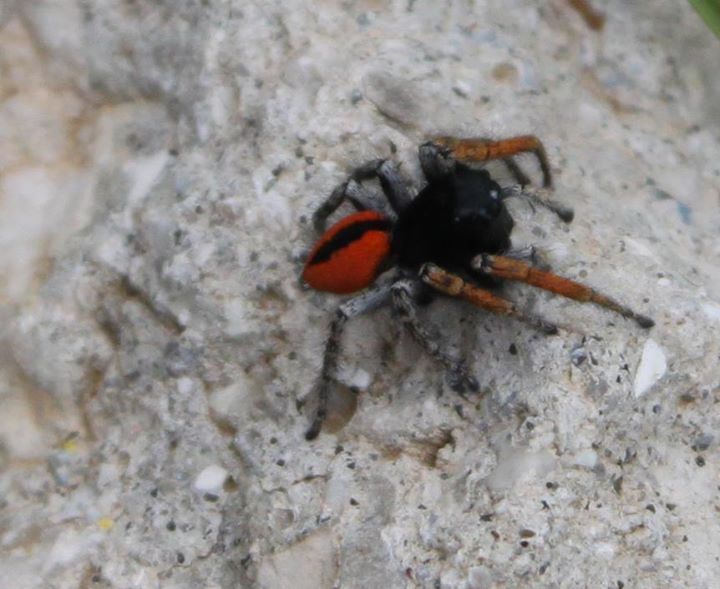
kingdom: Animalia
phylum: Arthropoda
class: Arachnida
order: Araneae
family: Salticidae
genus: Philaeus
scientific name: Philaeus chrysops
